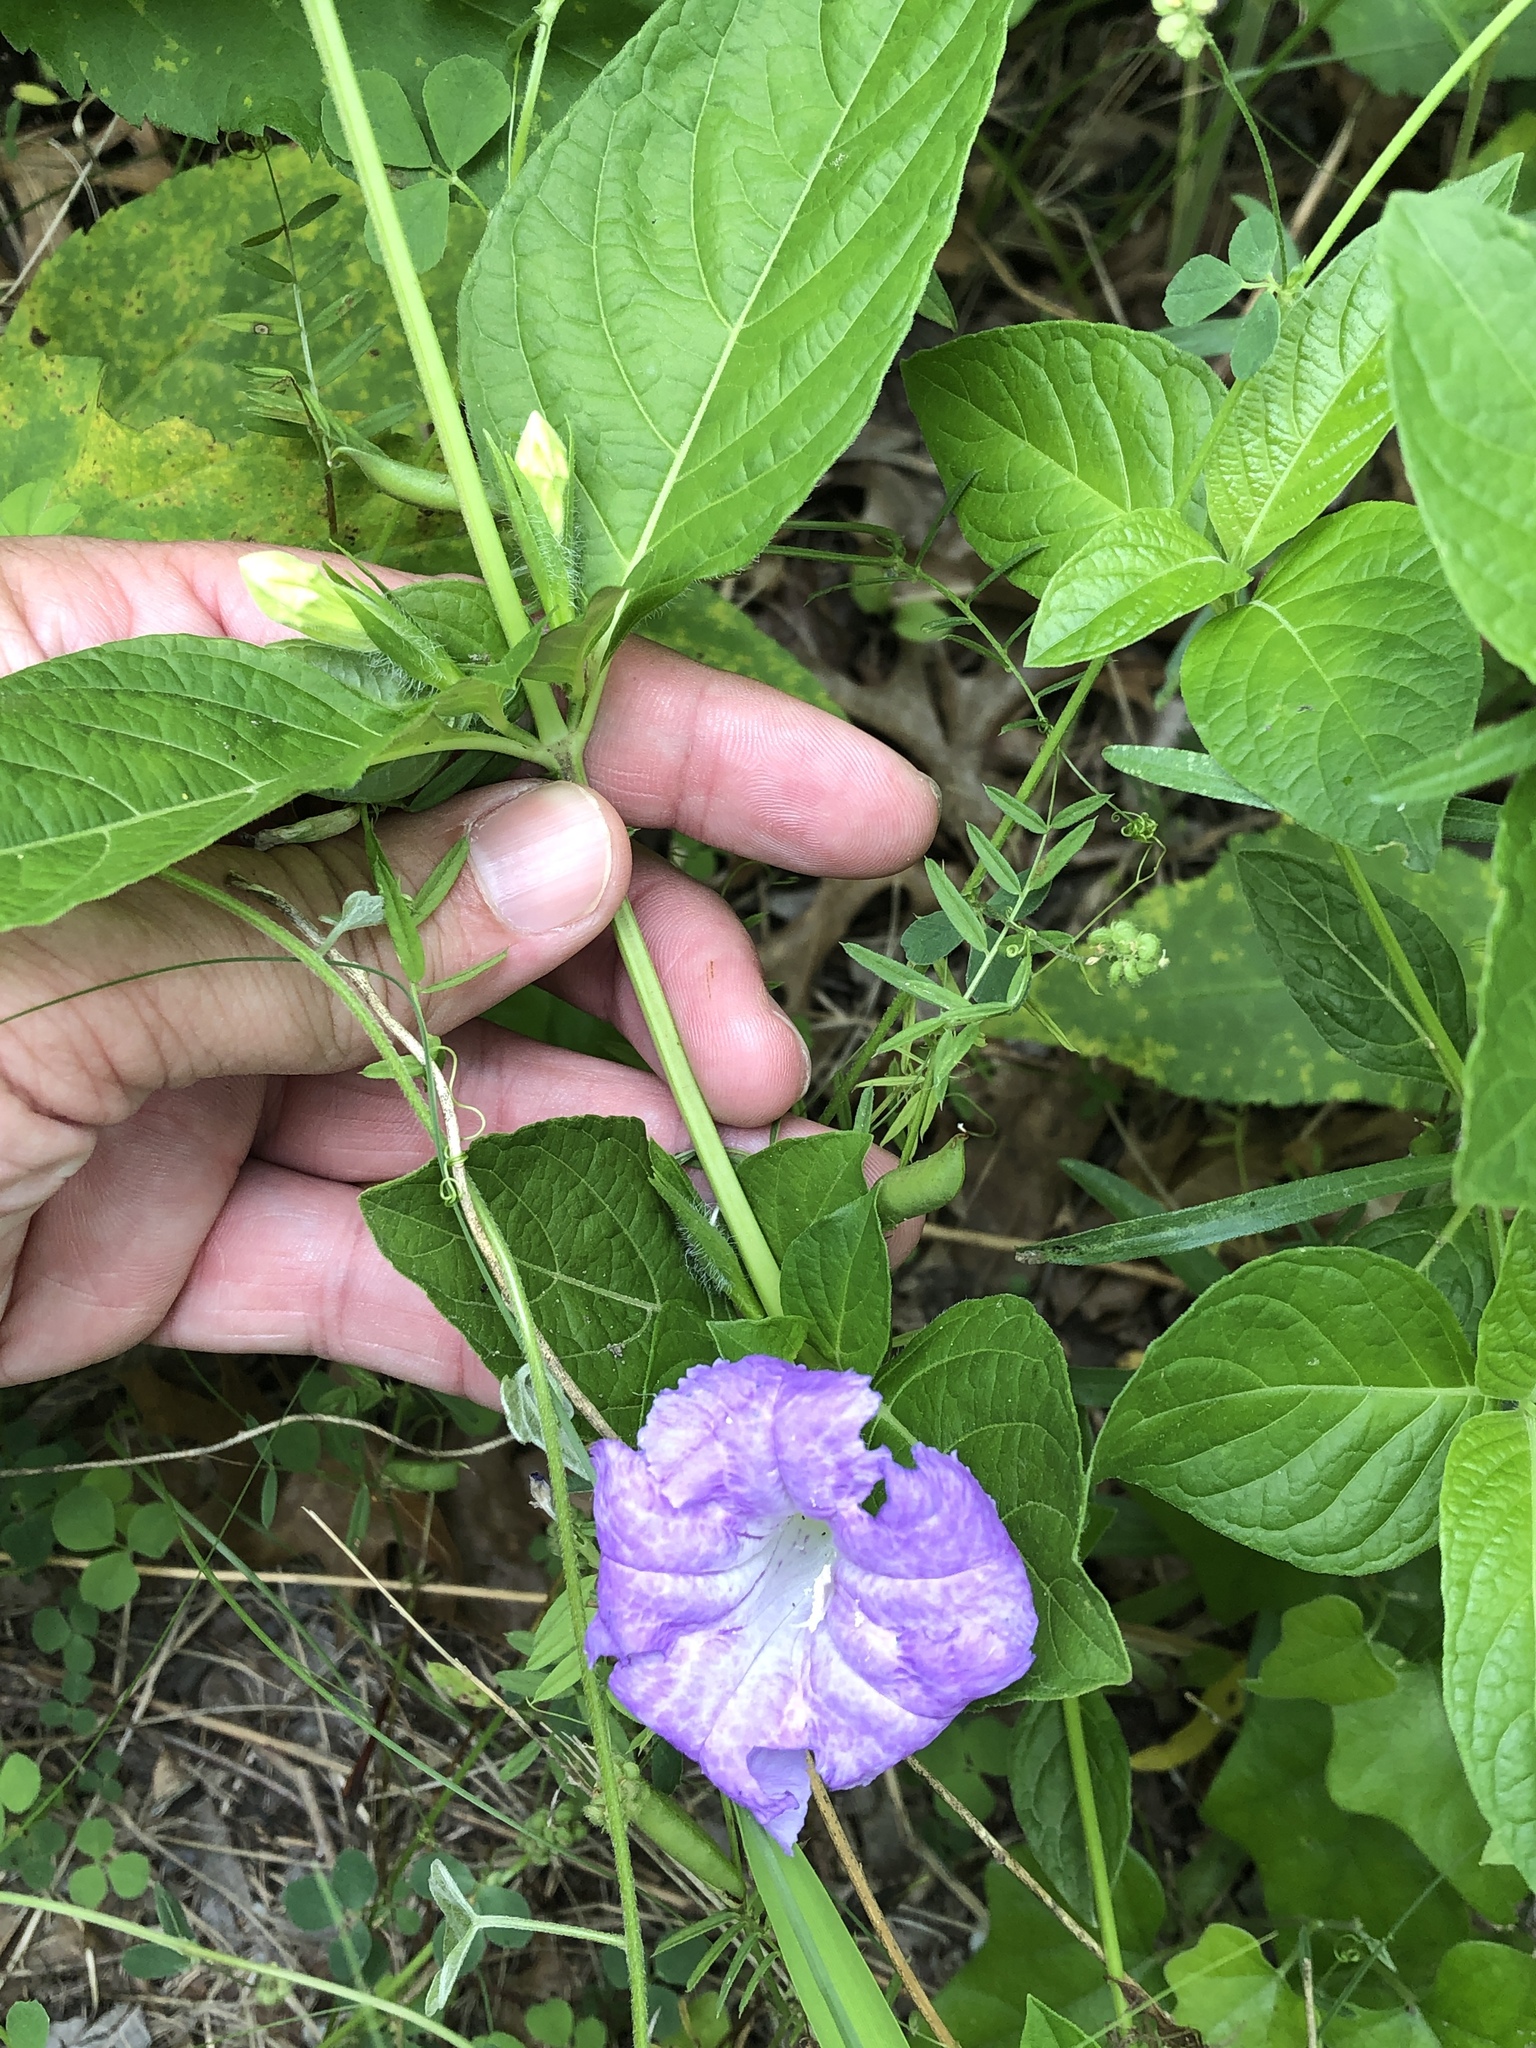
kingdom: Plantae
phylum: Tracheophyta
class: Magnoliopsida
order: Lamiales
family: Acanthaceae
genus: Ruellia
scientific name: Ruellia strepens
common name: Limestone wild petunia
